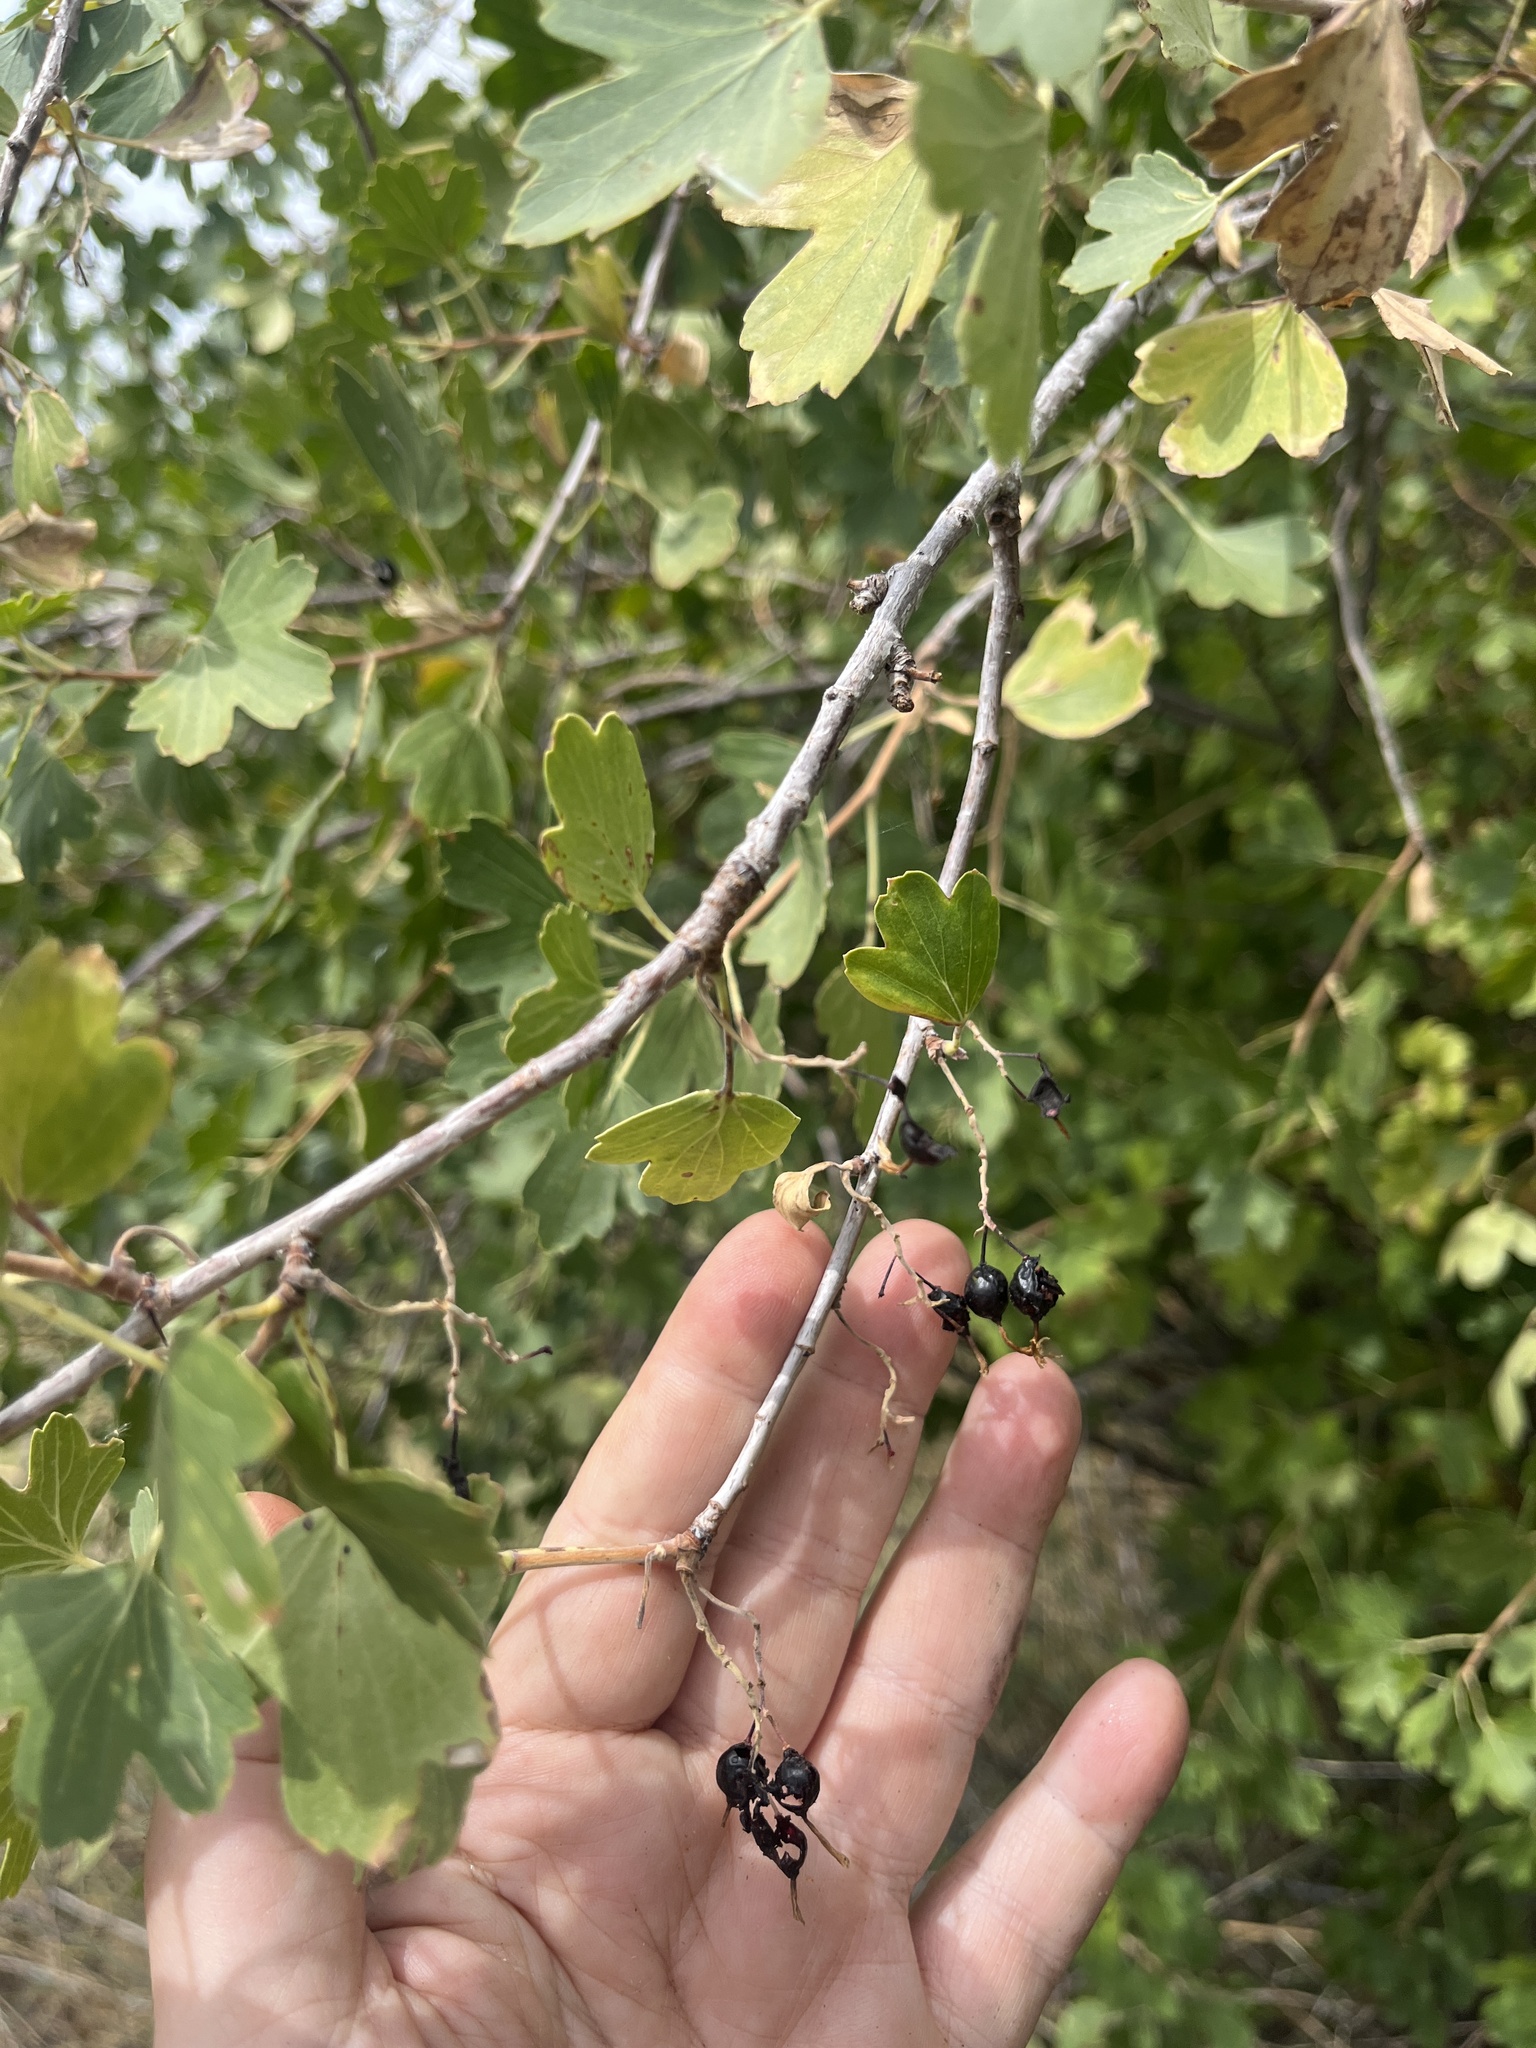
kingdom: Plantae
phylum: Tracheophyta
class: Magnoliopsida
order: Saxifragales
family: Grossulariaceae
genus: Ribes
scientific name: Ribes aureum
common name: Golden currant
